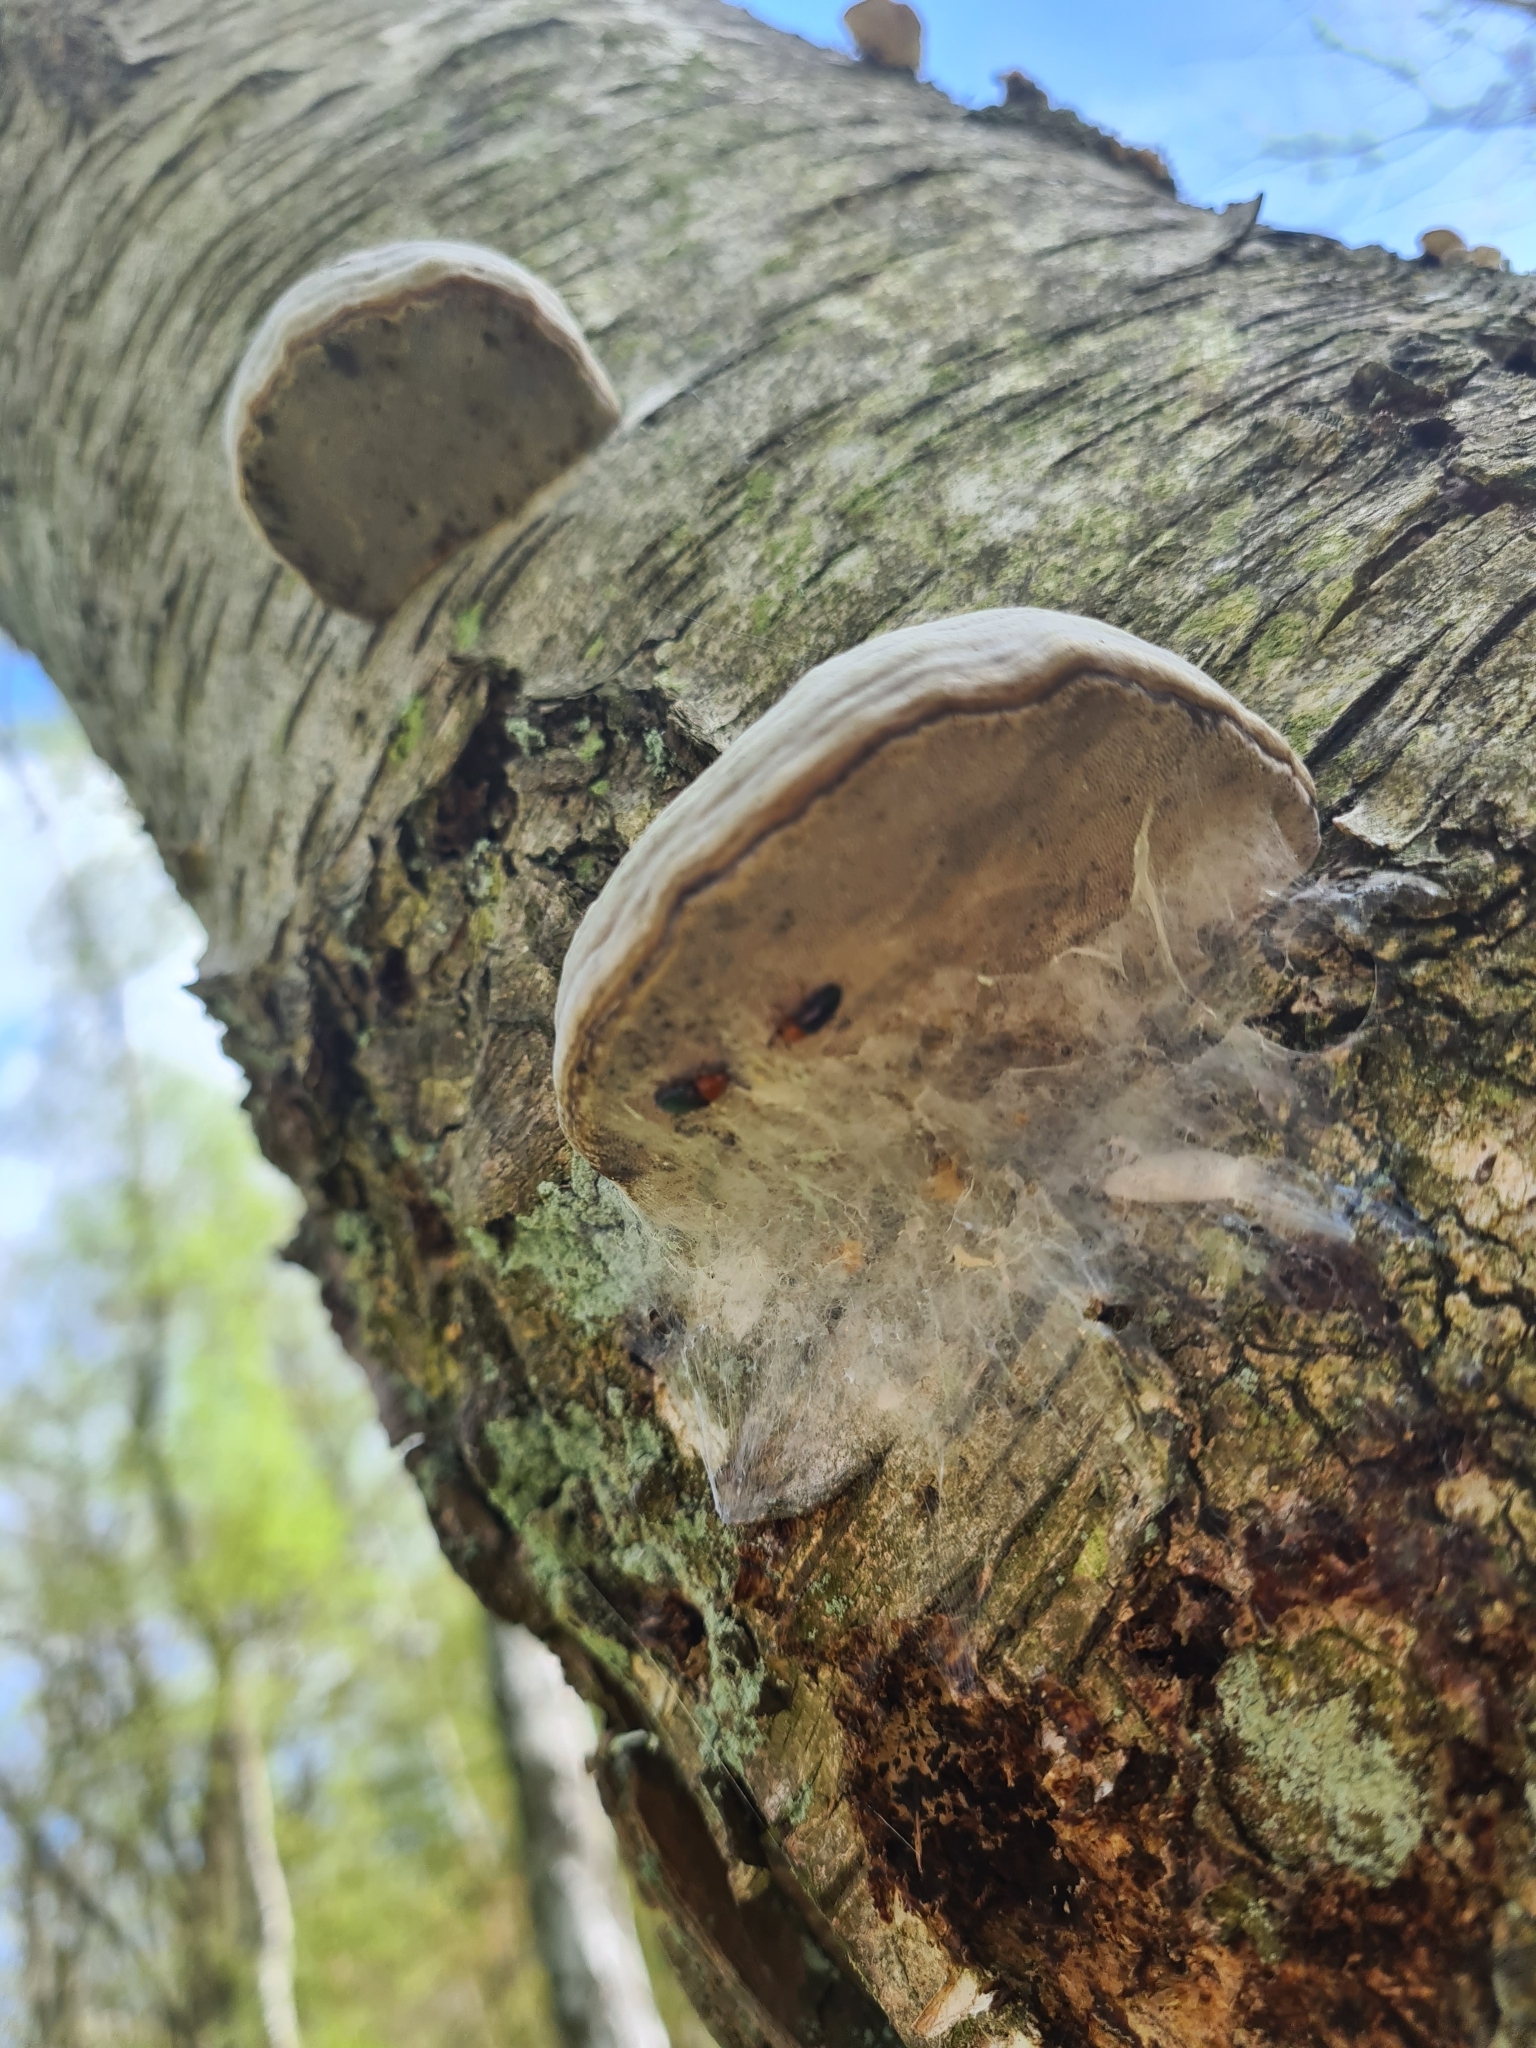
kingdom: Animalia
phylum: Arthropoda
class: Insecta
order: Coleoptera
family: Erotylidae
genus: Triplax
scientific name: Triplax russica
